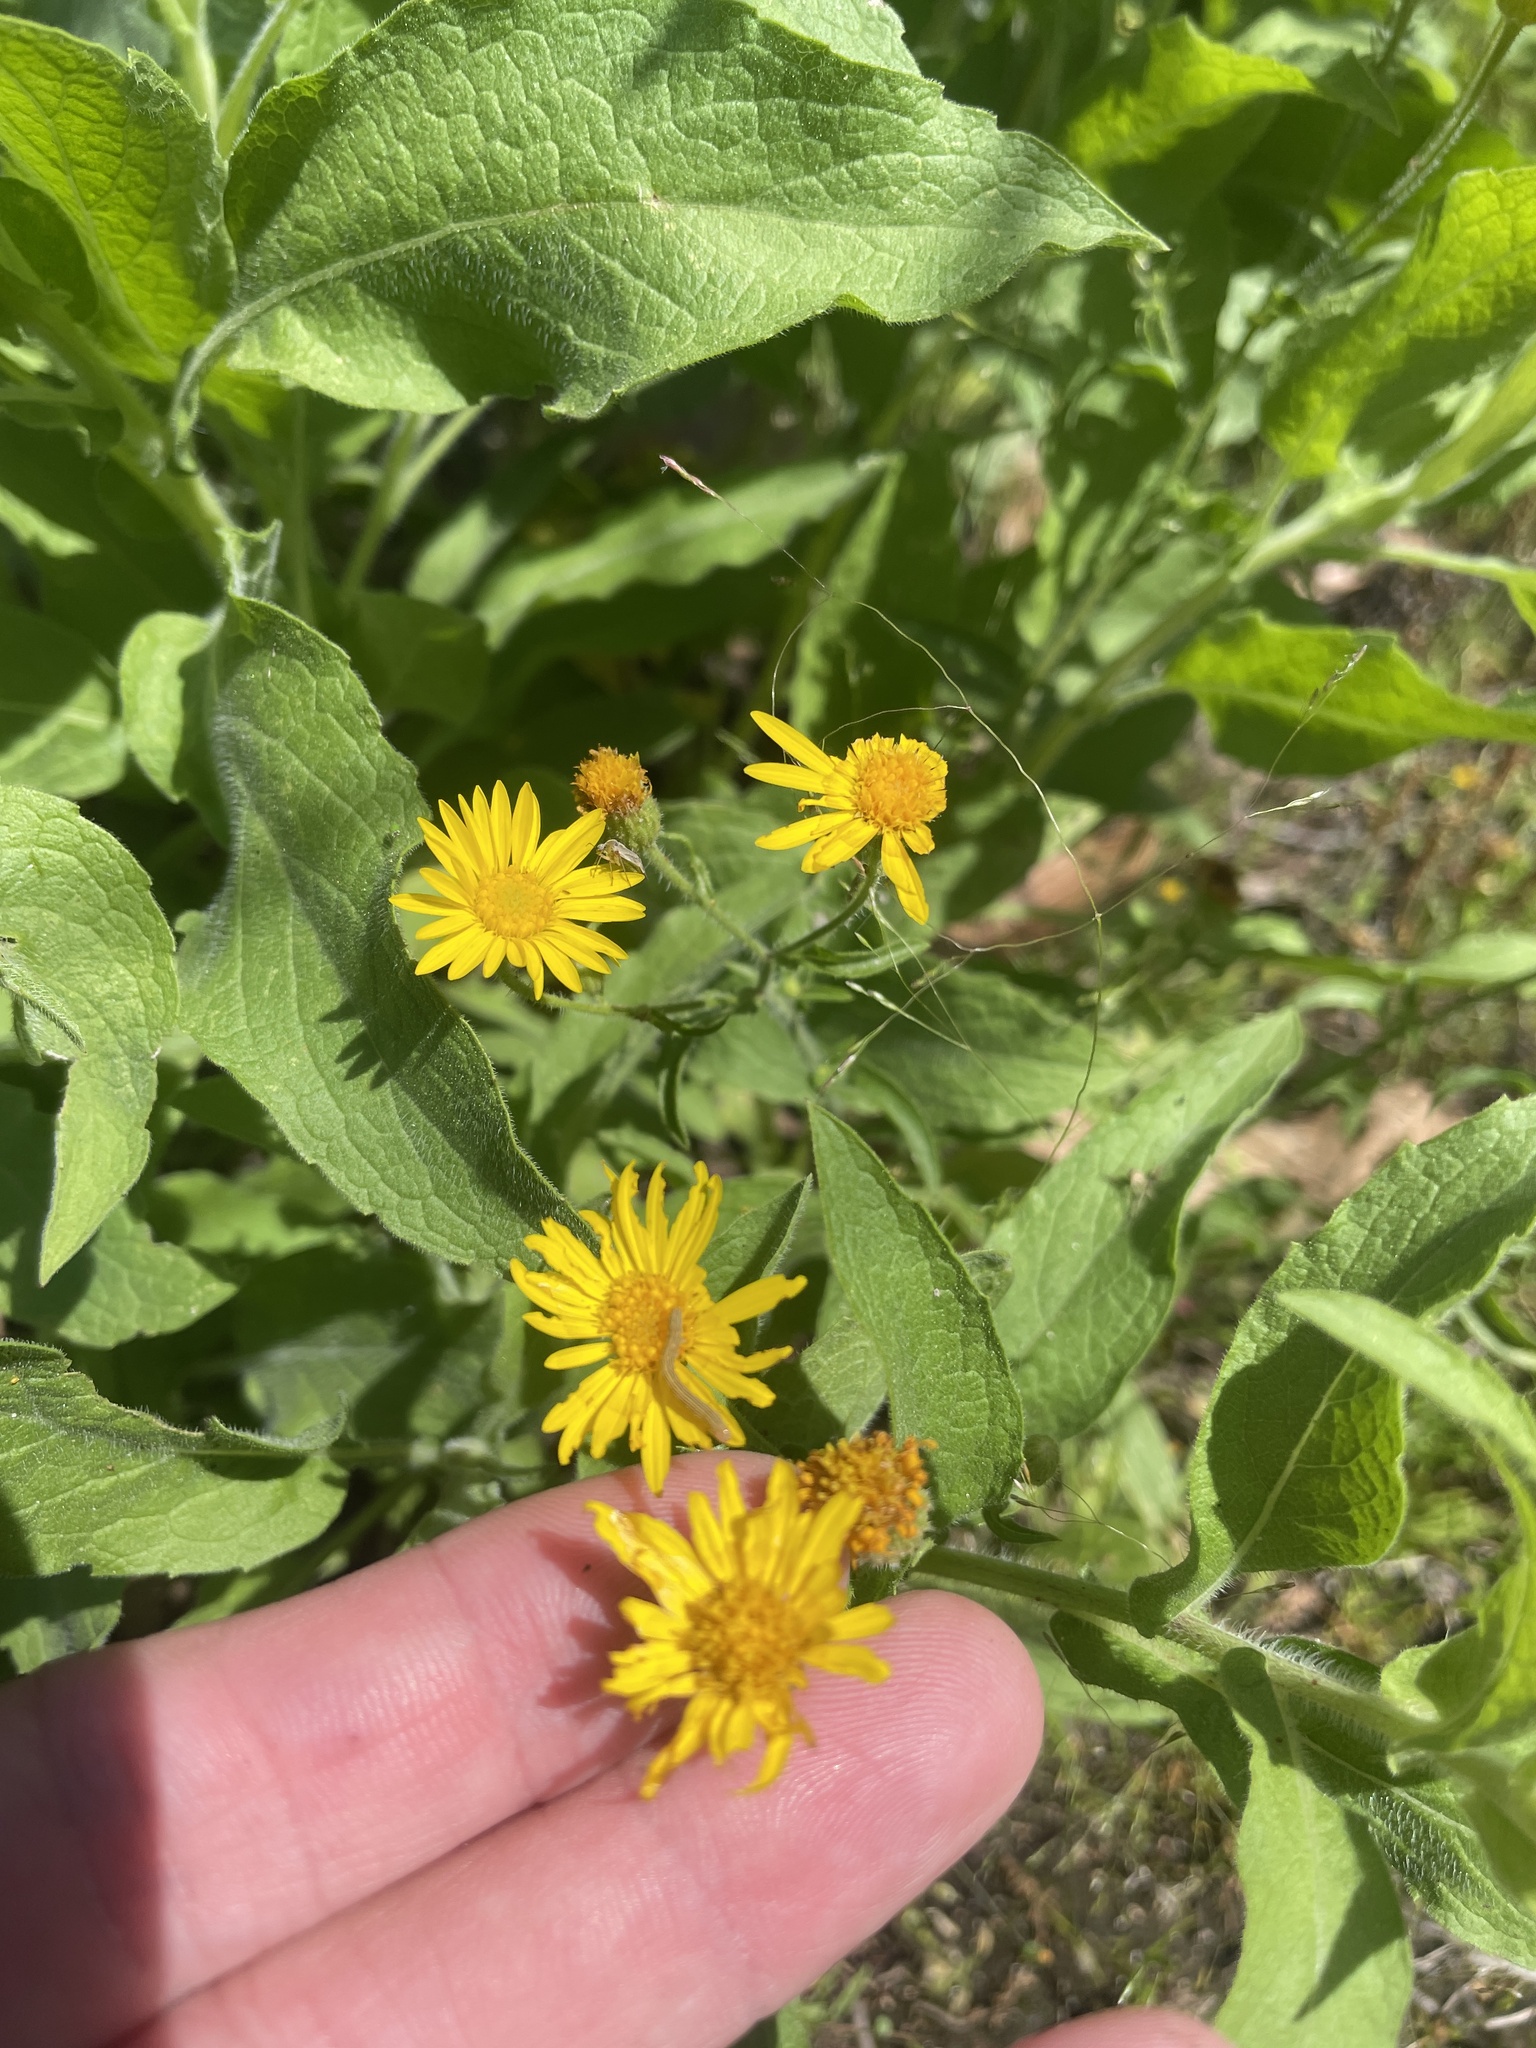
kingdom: Plantae
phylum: Tracheophyta
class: Magnoliopsida
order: Asterales
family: Asteraceae
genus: Heterotheca
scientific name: Heterotheca subaxillaris
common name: Camphorweed
